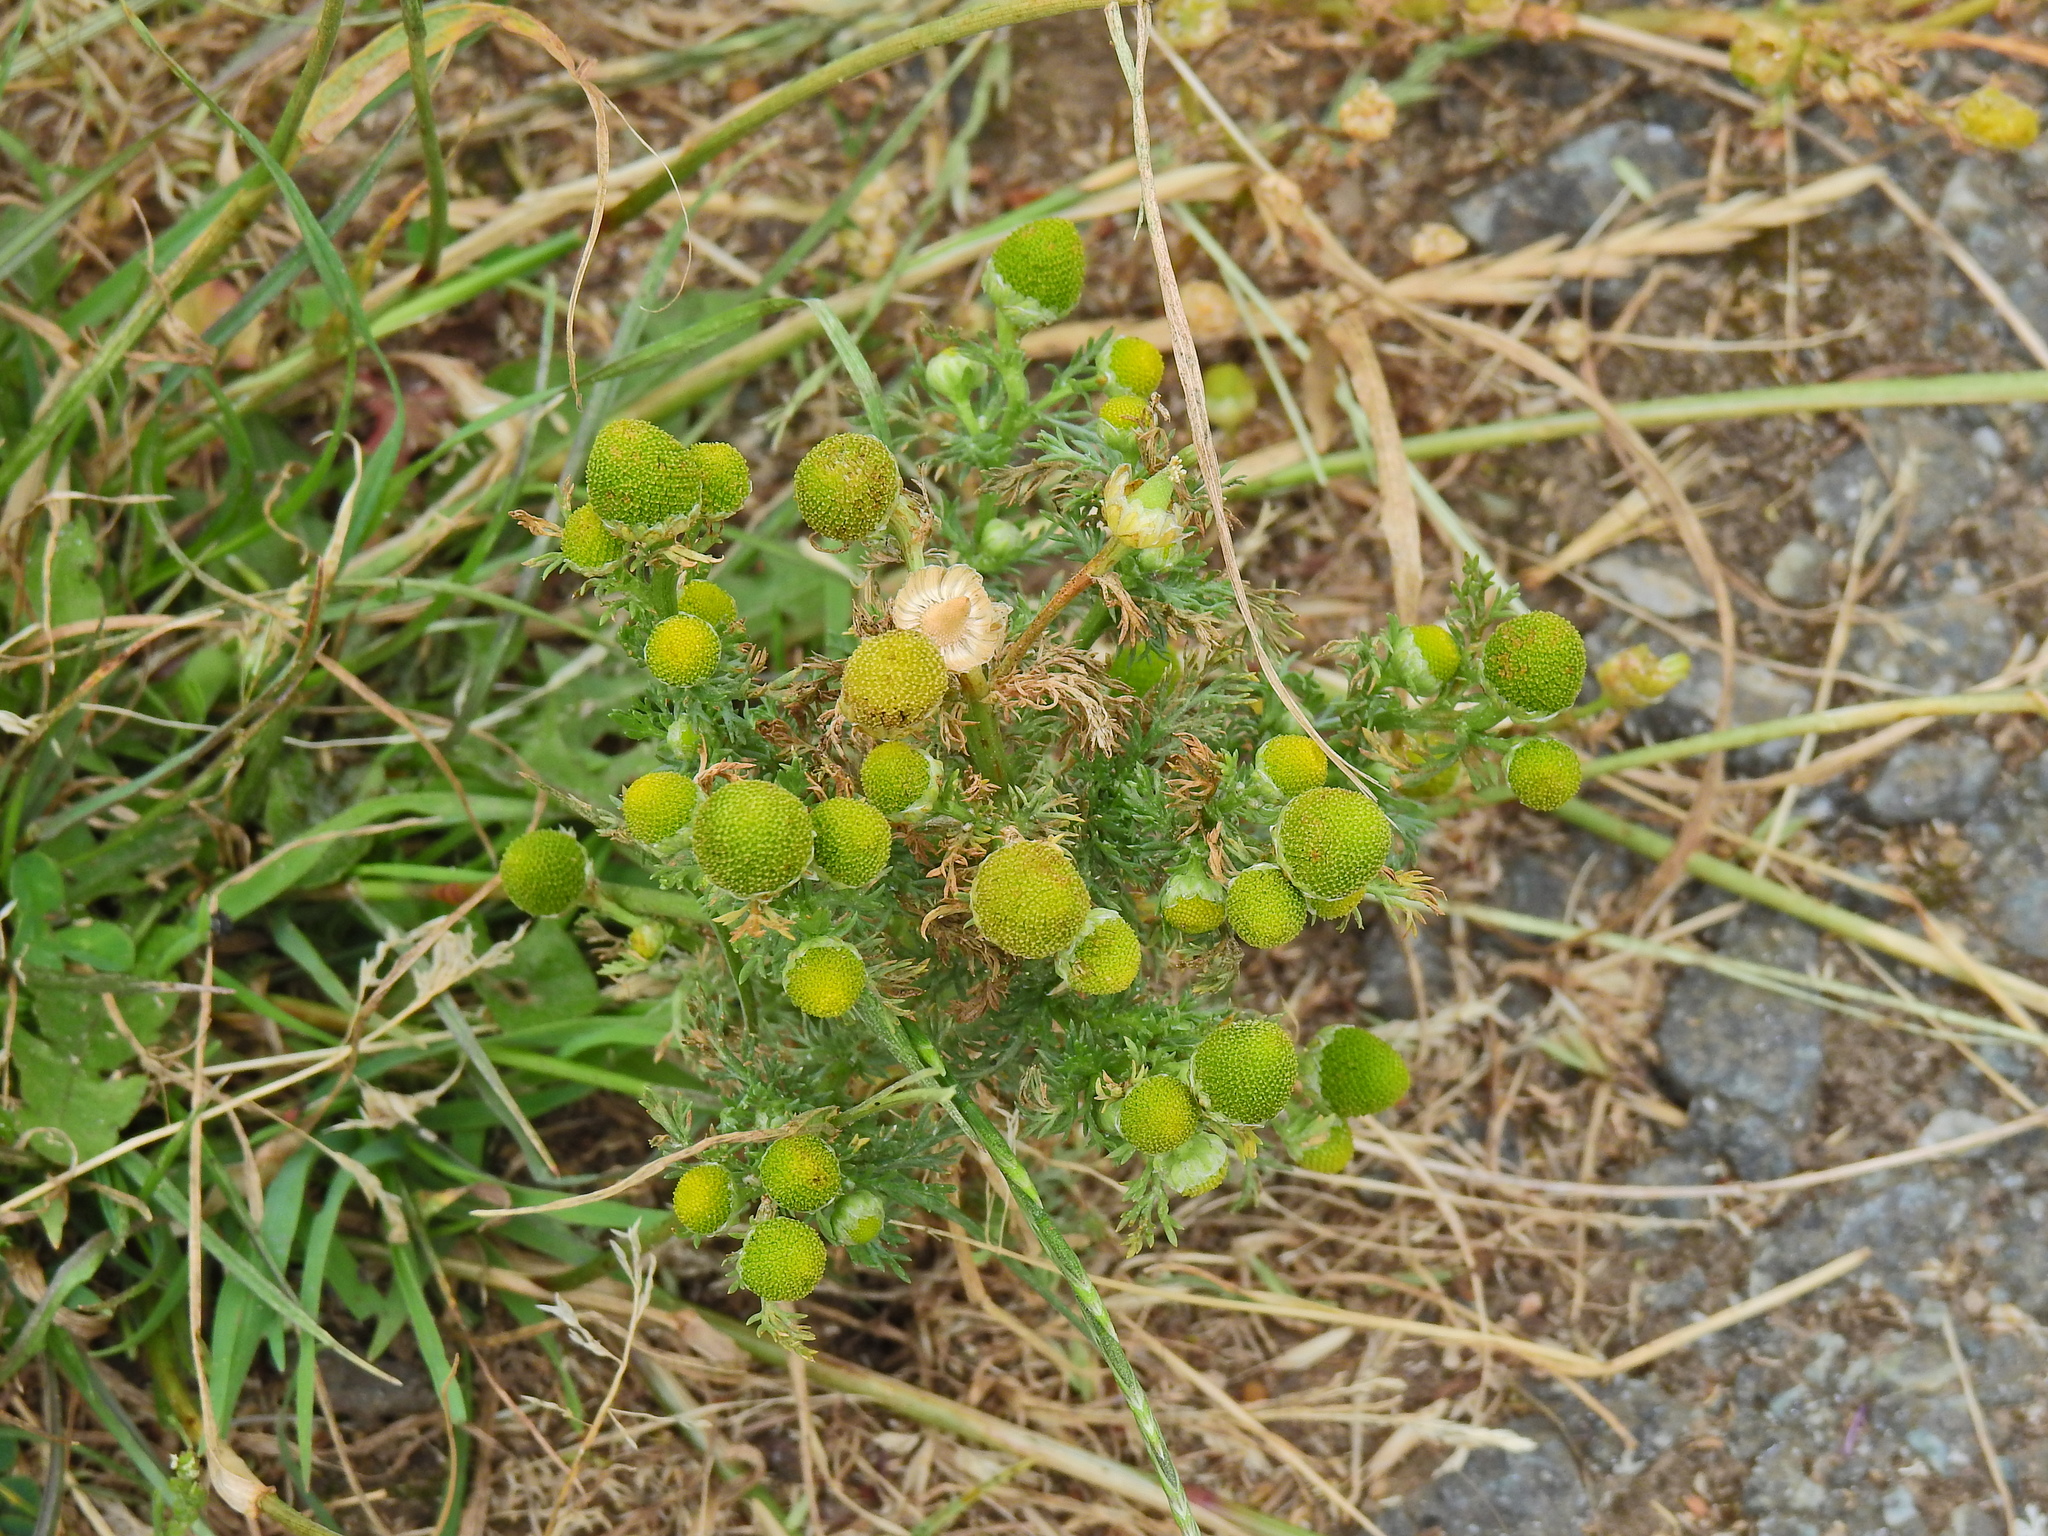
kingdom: Plantae
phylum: Tracheophyta
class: Magnoliopsida
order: Asterales
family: Asteraceae
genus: Matricaria
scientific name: Matricaria discoidea
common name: Disc mayweed
